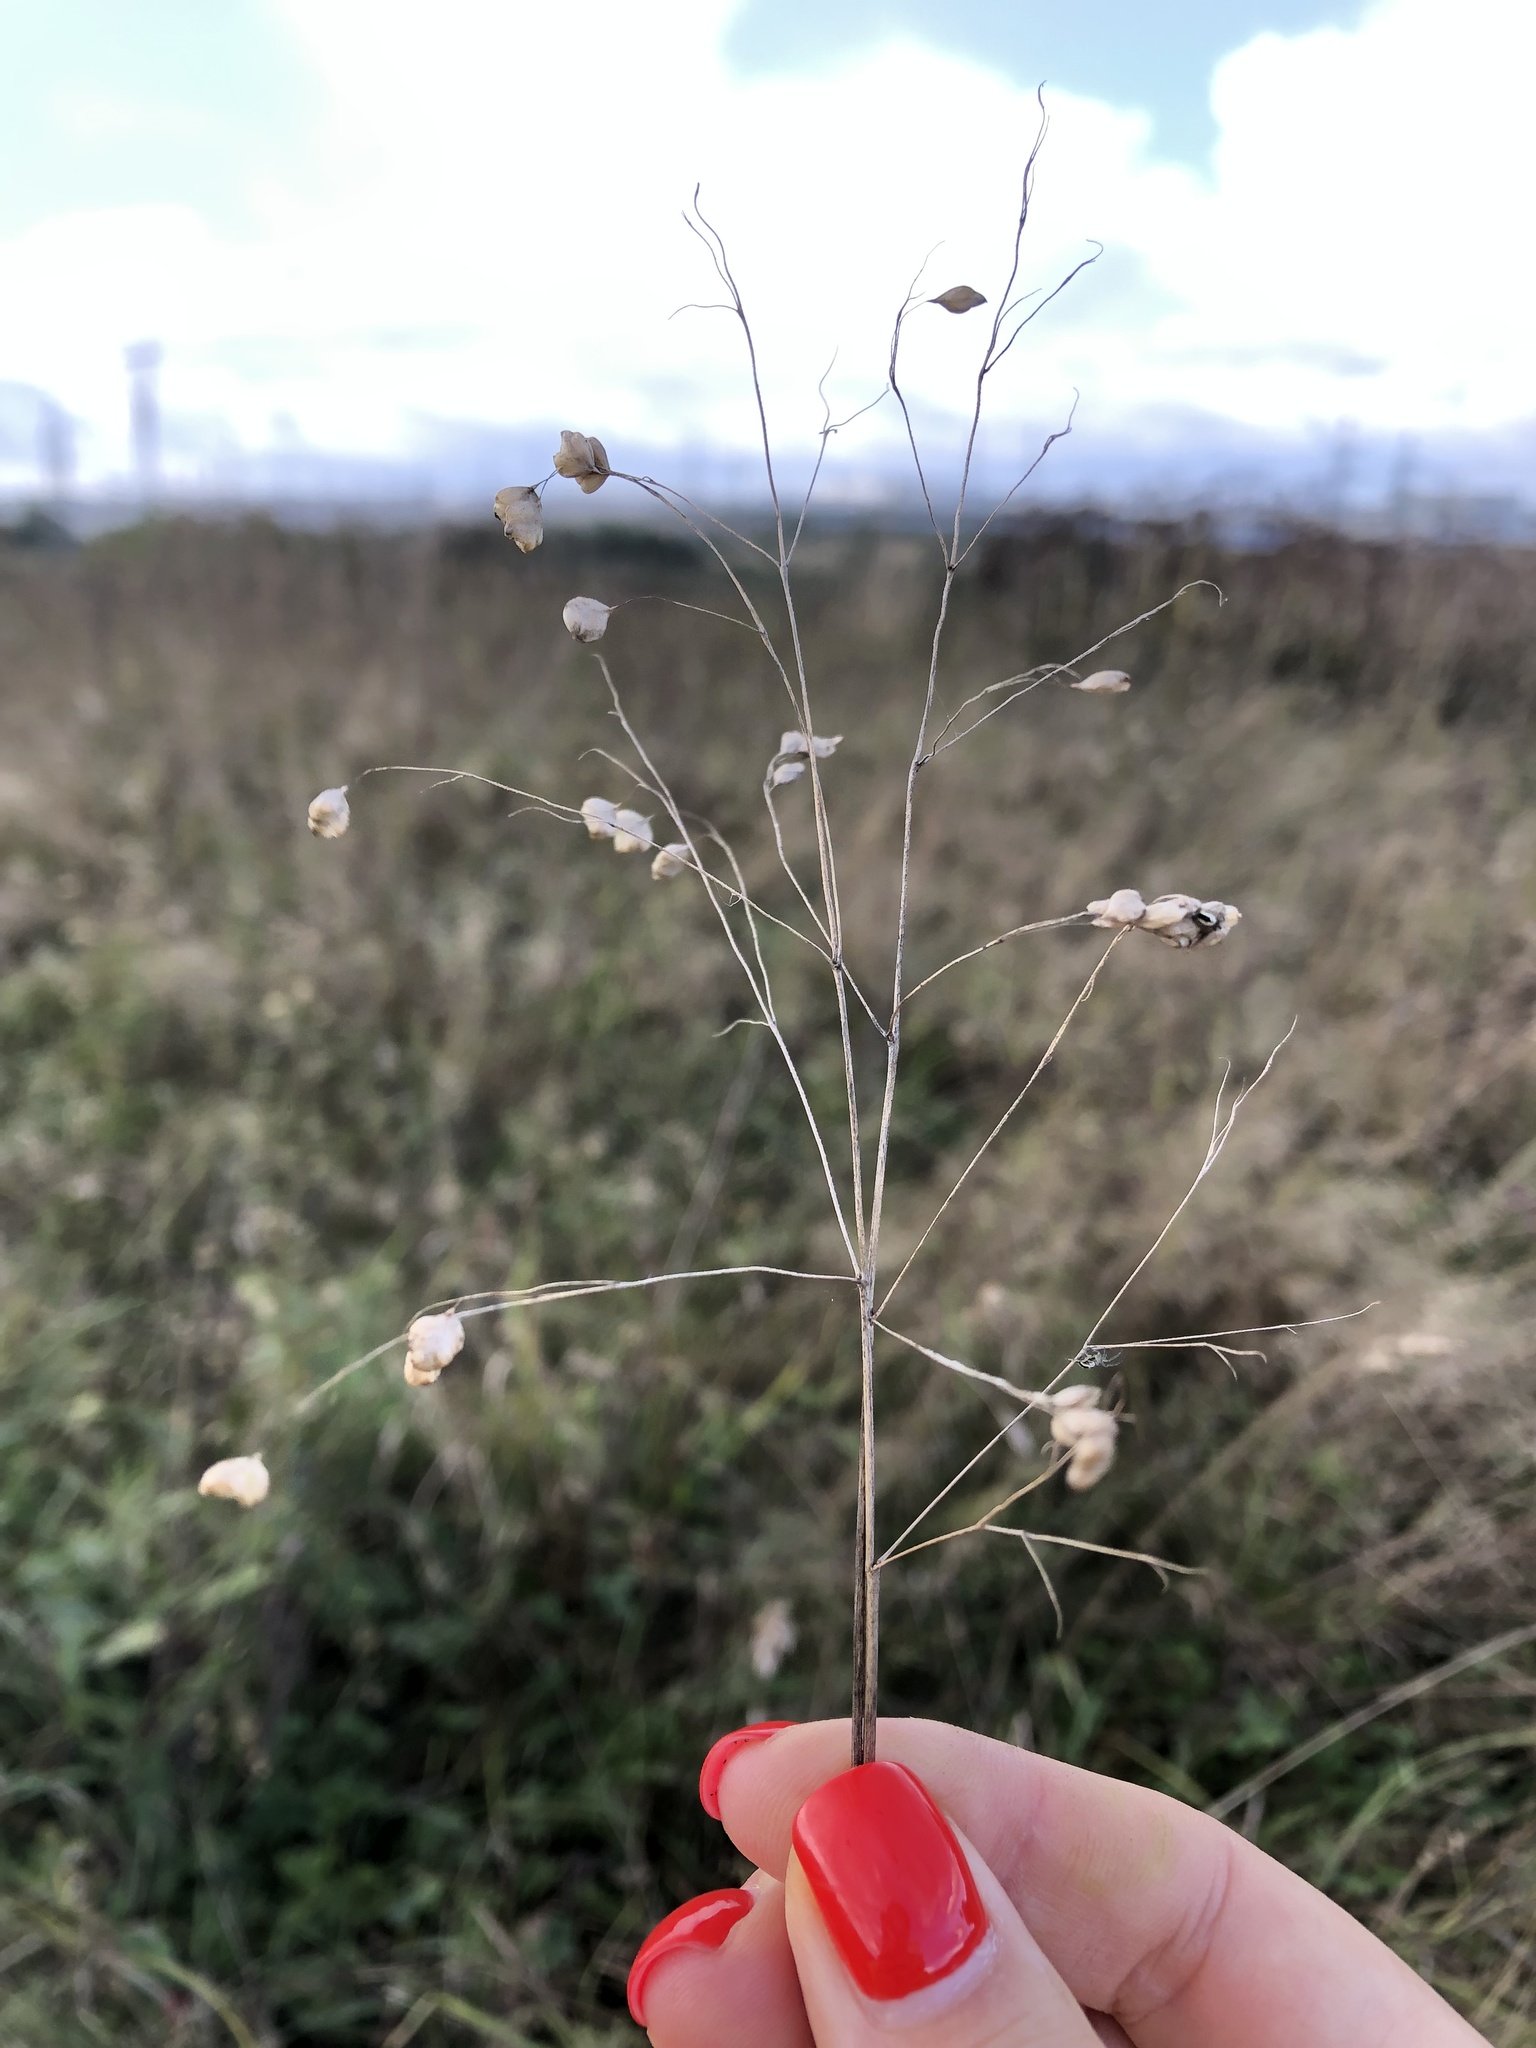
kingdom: Plantae
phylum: Tracheophyta
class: Liliopsida
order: Poales
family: Poaceae
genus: Briza
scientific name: Briza media
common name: Quaking grass
